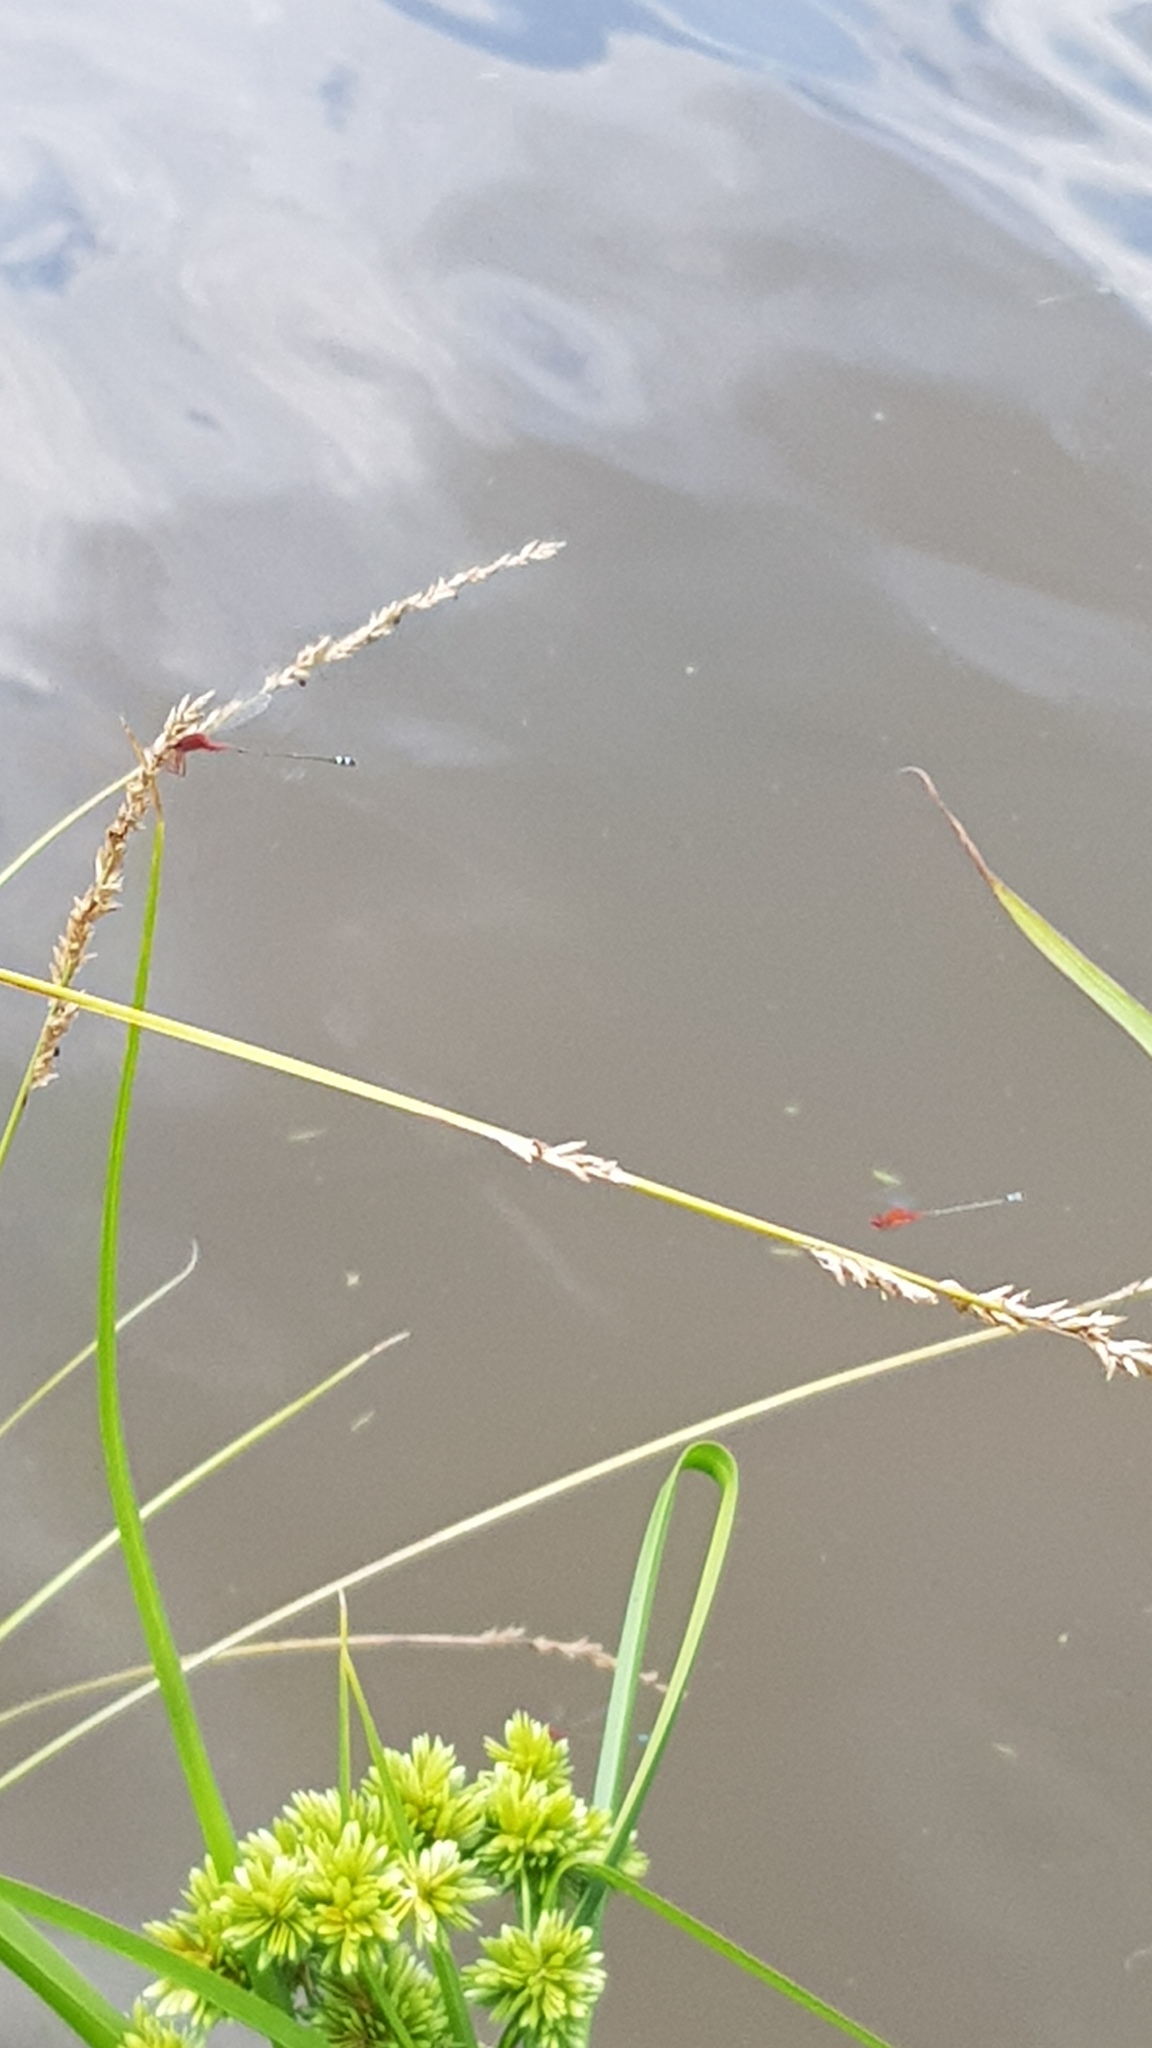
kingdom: Animalia
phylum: Arthropoda
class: Insecta
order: Odonata
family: Coenagrionidae
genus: Xanthagrion
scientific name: Xanthagrion erythroneurum
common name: Red and blue damsel
